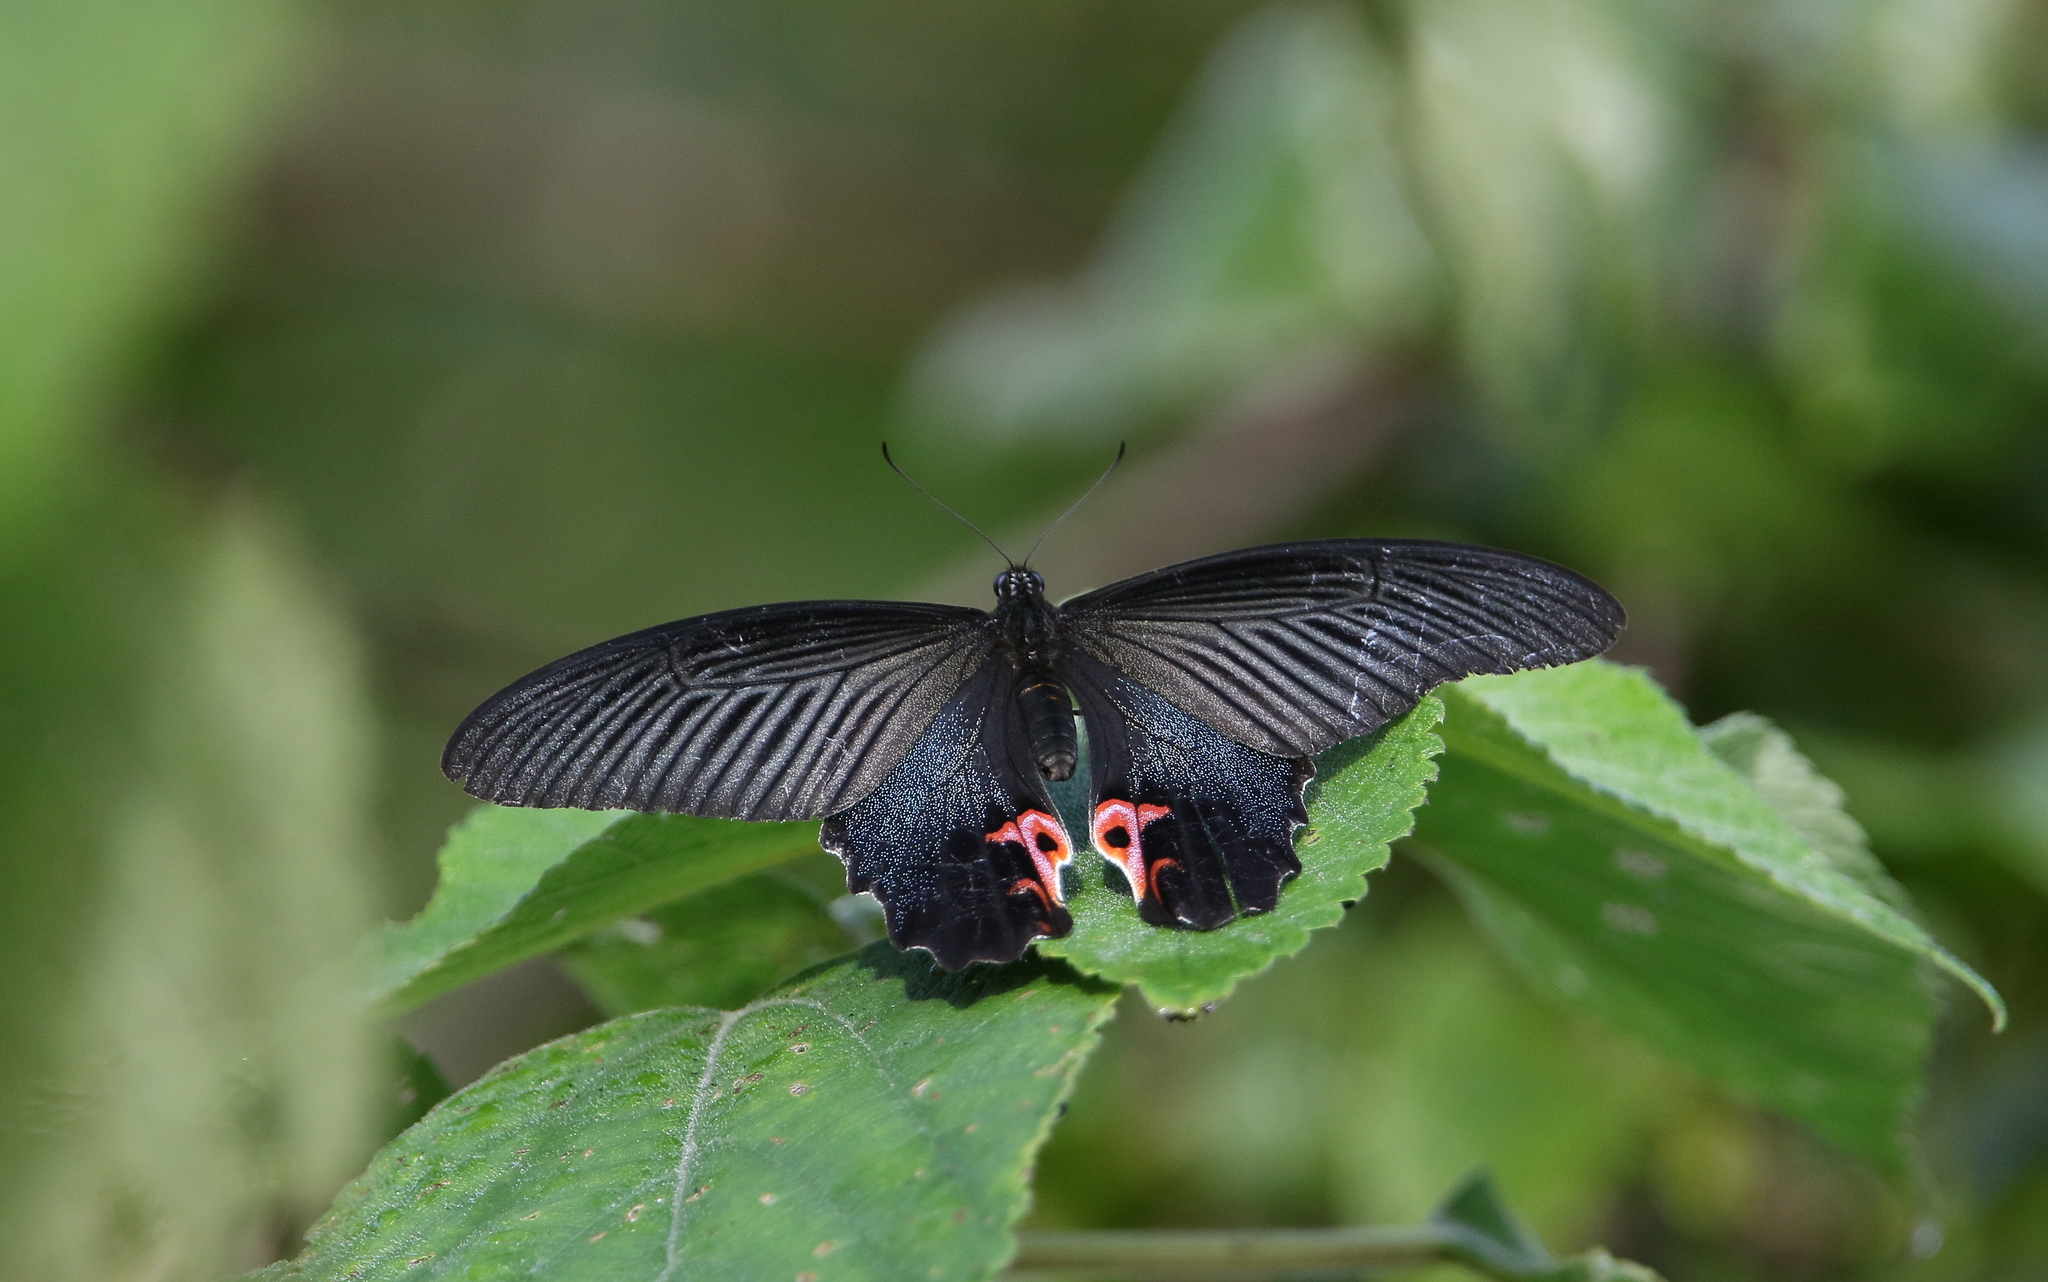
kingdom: Animalia
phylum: Arthropoda
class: Insecta
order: Lepidoptera
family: Papilionidae
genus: Papilio
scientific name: Papilio protenor
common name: Spangle
